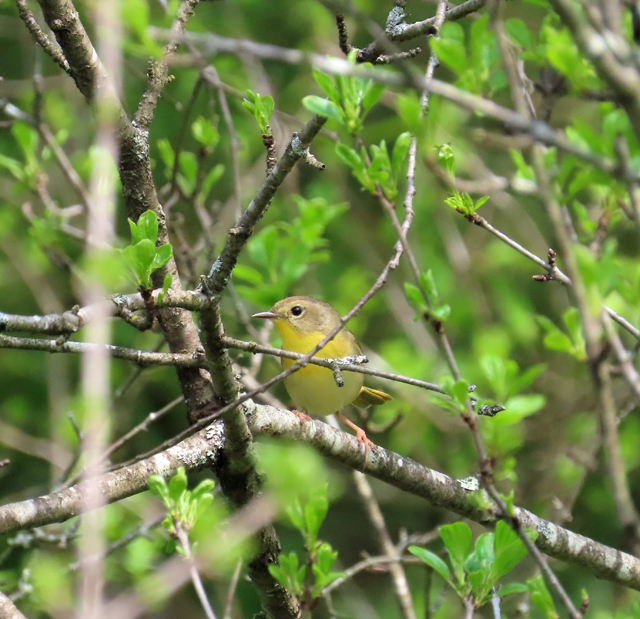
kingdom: Animalia
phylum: Chordata
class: Aves
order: Passeriformes
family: Parulidae
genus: Geothlypis
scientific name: Geothlypis trichas
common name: Common yellowthroat
